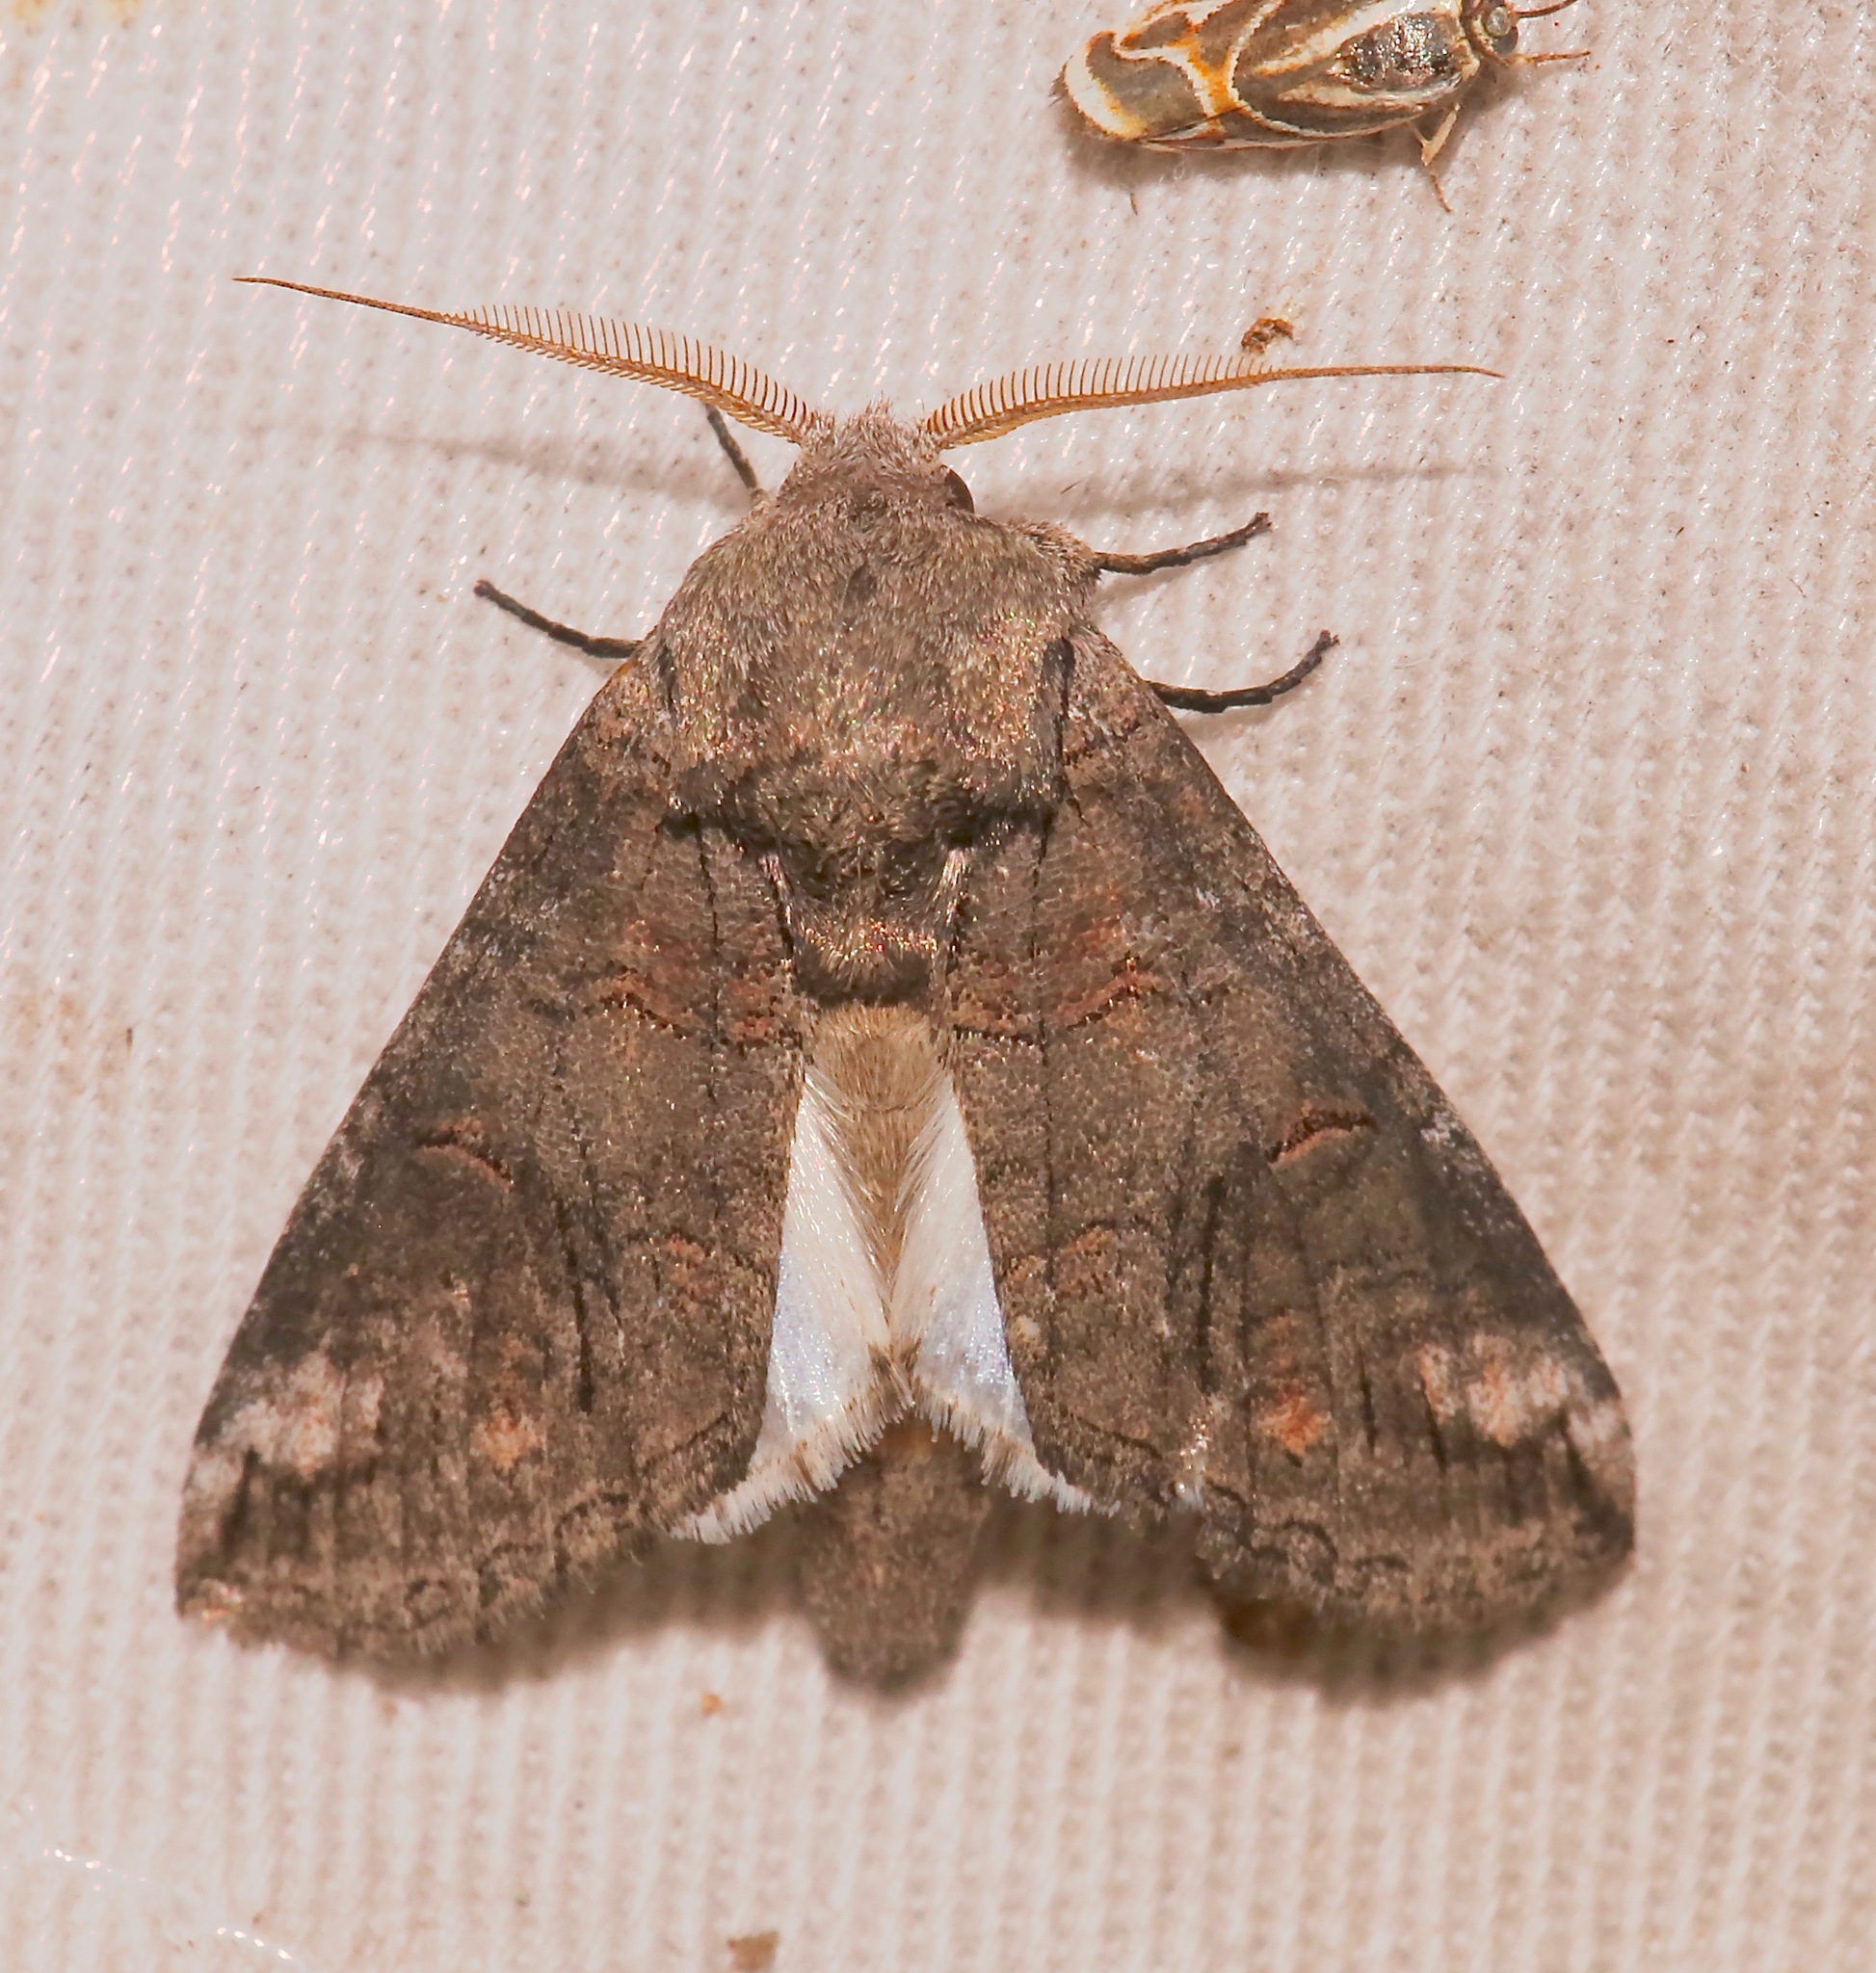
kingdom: Animalia
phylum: Arthropoda
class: Insecta
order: Lepidoptera
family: Notodontidae
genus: Heterocampa
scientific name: Heterocampa secessionis
